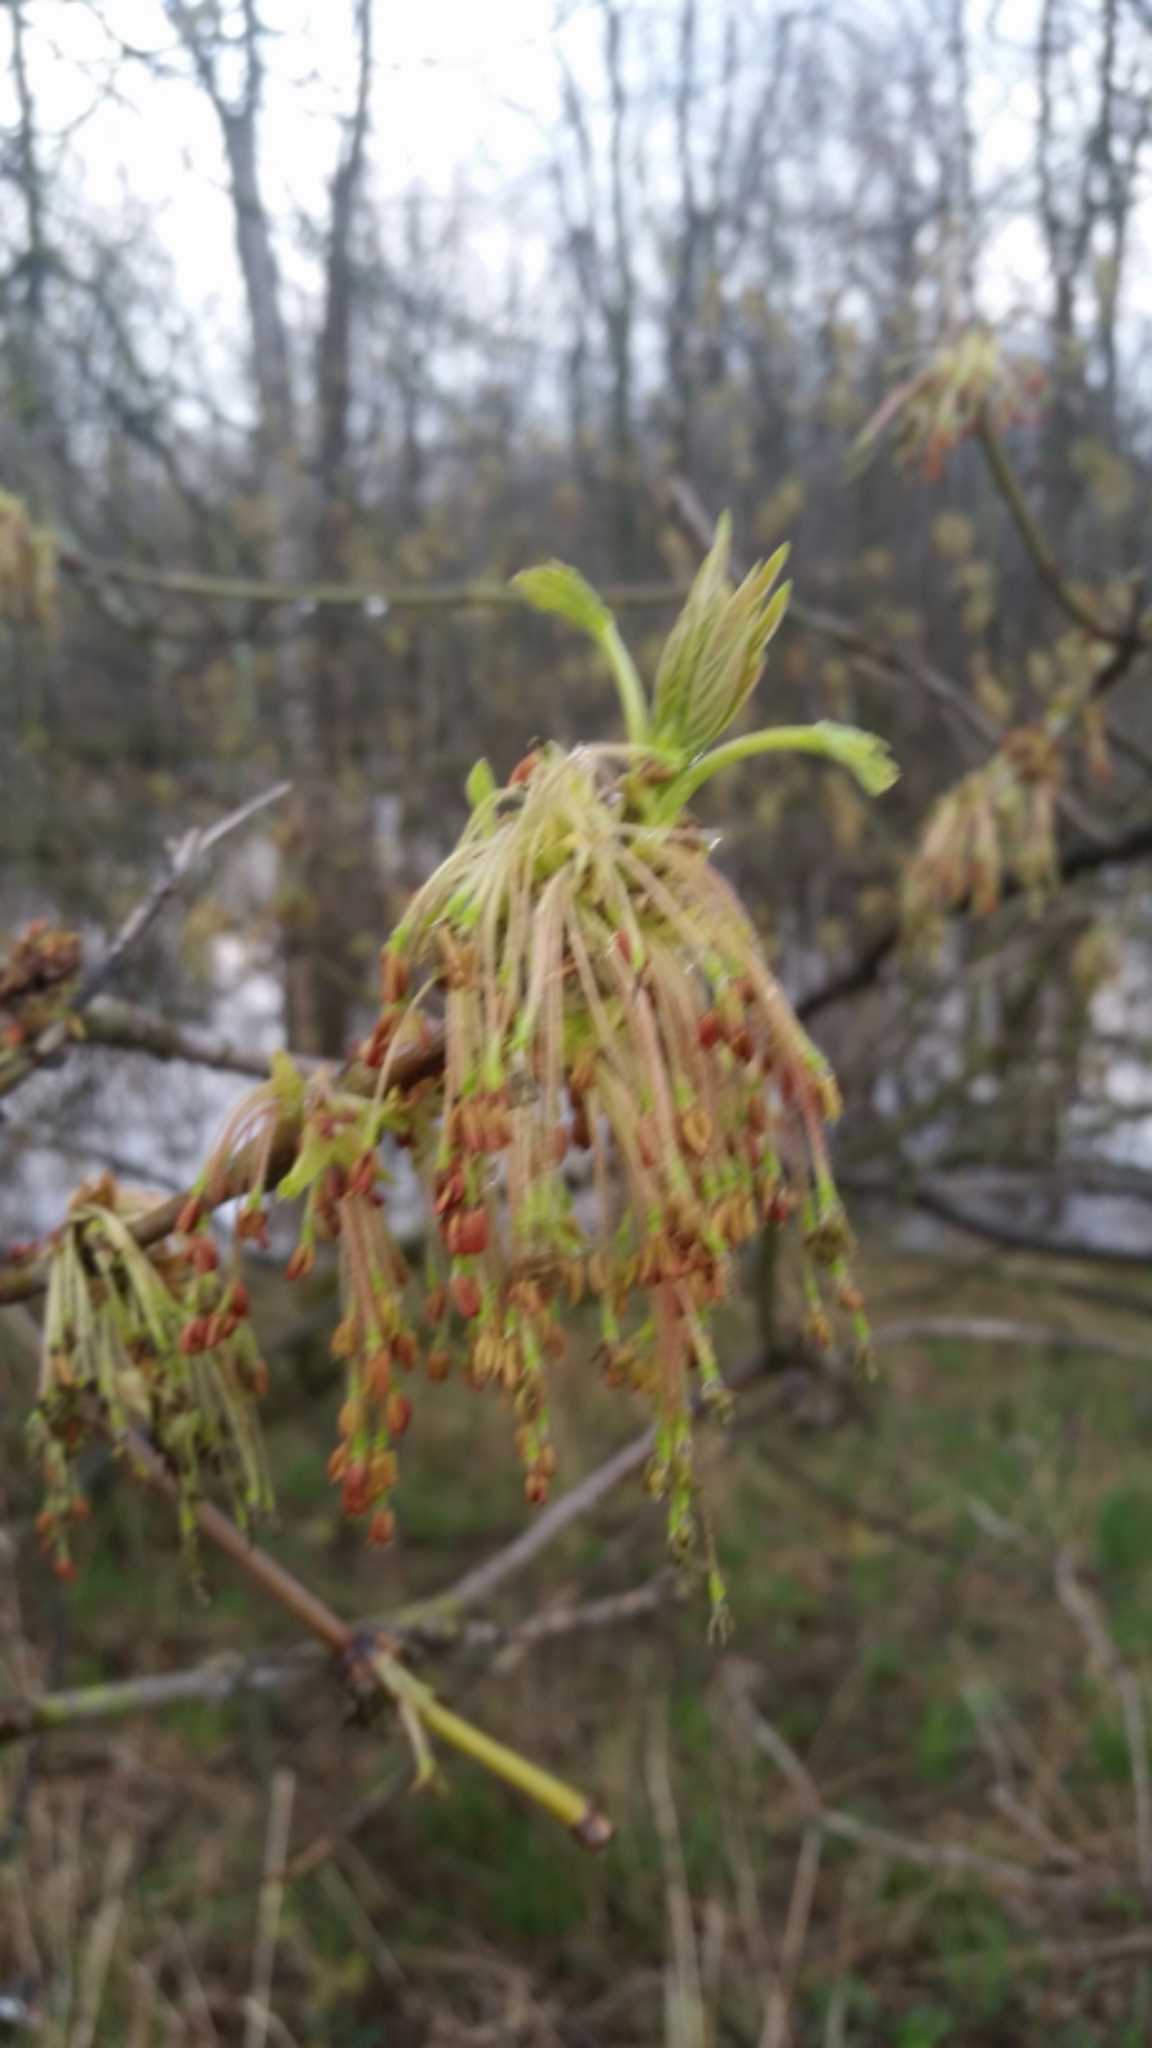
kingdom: Plantae
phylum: Tracheophyta
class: Magnoliopsida
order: Sapindales
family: Sapindaceae
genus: Acer
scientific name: Acer negundo
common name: Ashleaf maple
